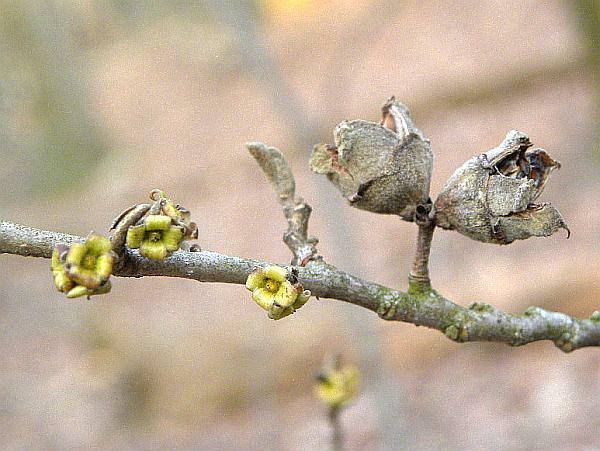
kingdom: Plantae
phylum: Tracheophyta
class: Magnoliopsida
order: Saxifragales
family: Hamamelidaceae
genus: Hamamelis
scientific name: Hamamelis virginiana
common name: Witch-hazel
